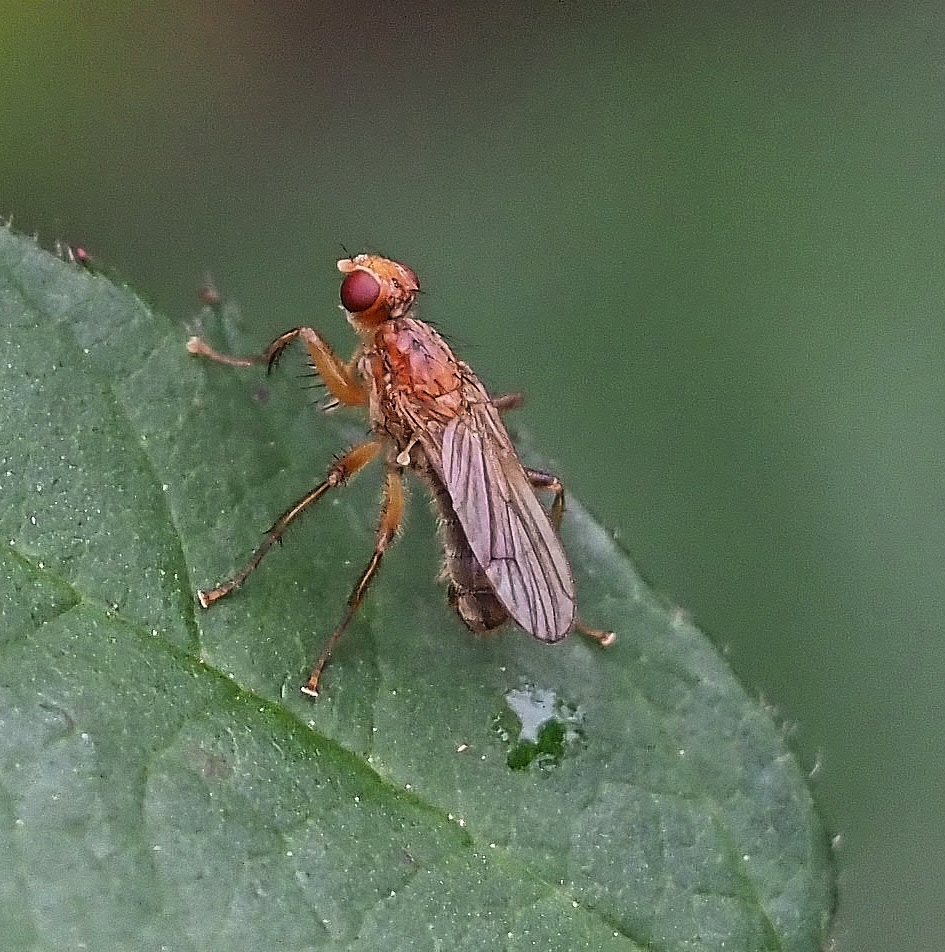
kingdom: Animalia
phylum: Arthropoda
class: Insecta
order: Diptera
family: Scathophagidae
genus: Norellisoma
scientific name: Norellisoma spinimanum
